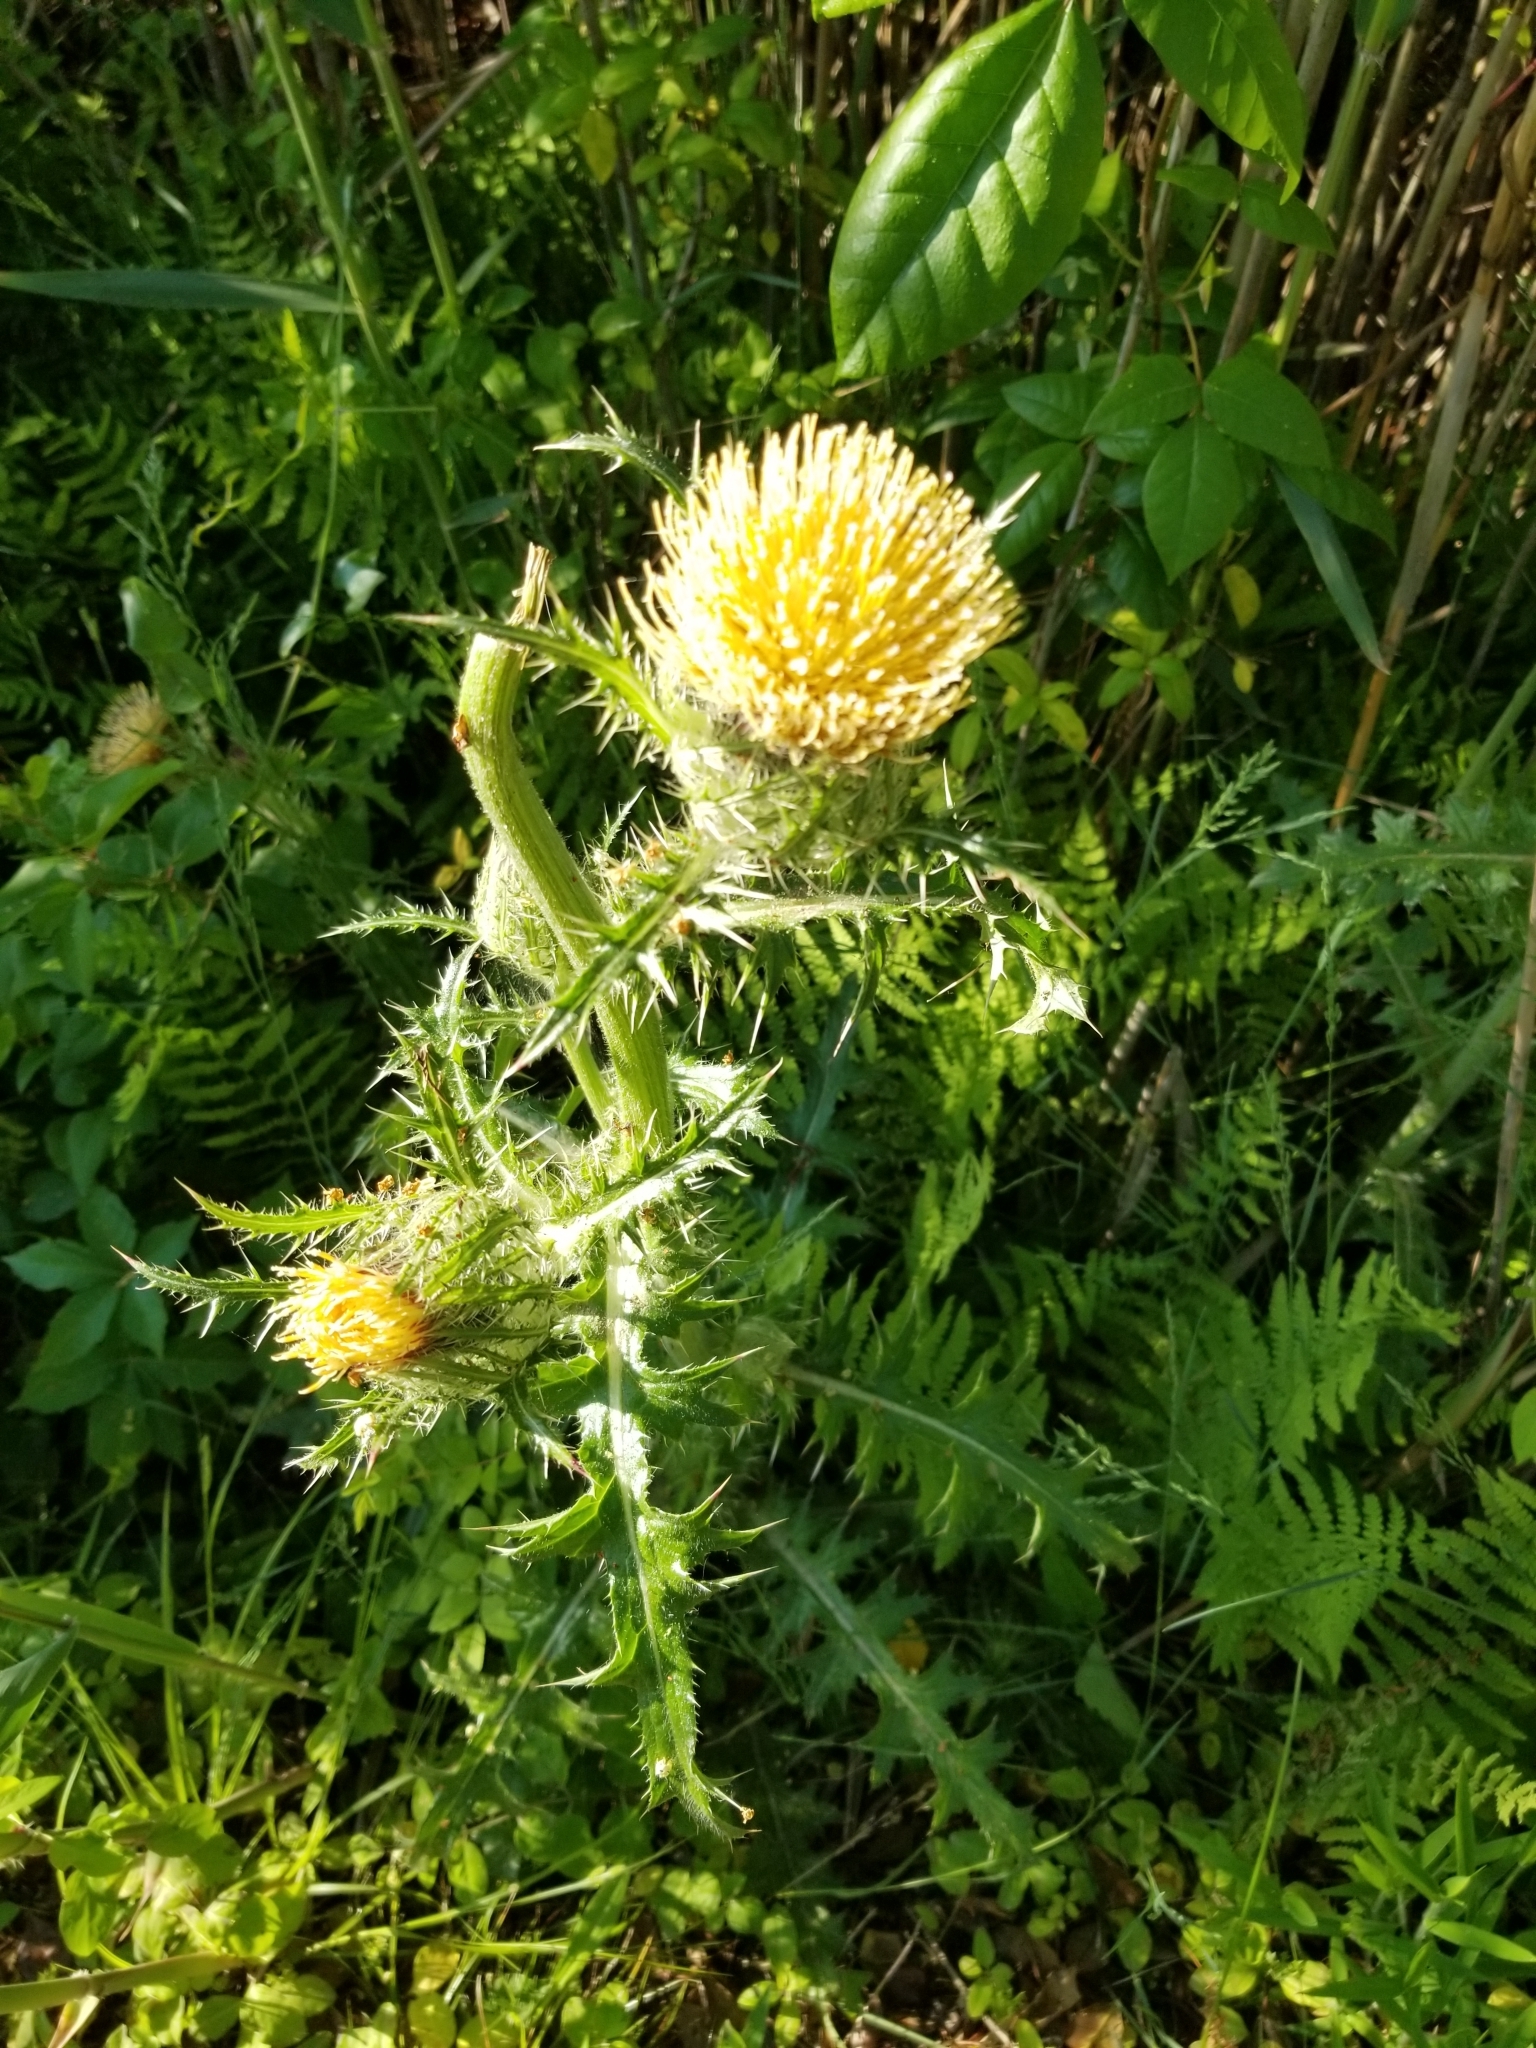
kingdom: Plantae
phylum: Tracheophyta
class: Magnoliopsida
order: Asterales
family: Asteraceae
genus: Cirsium
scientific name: Cirsium horridulum
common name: Bristly thistle
